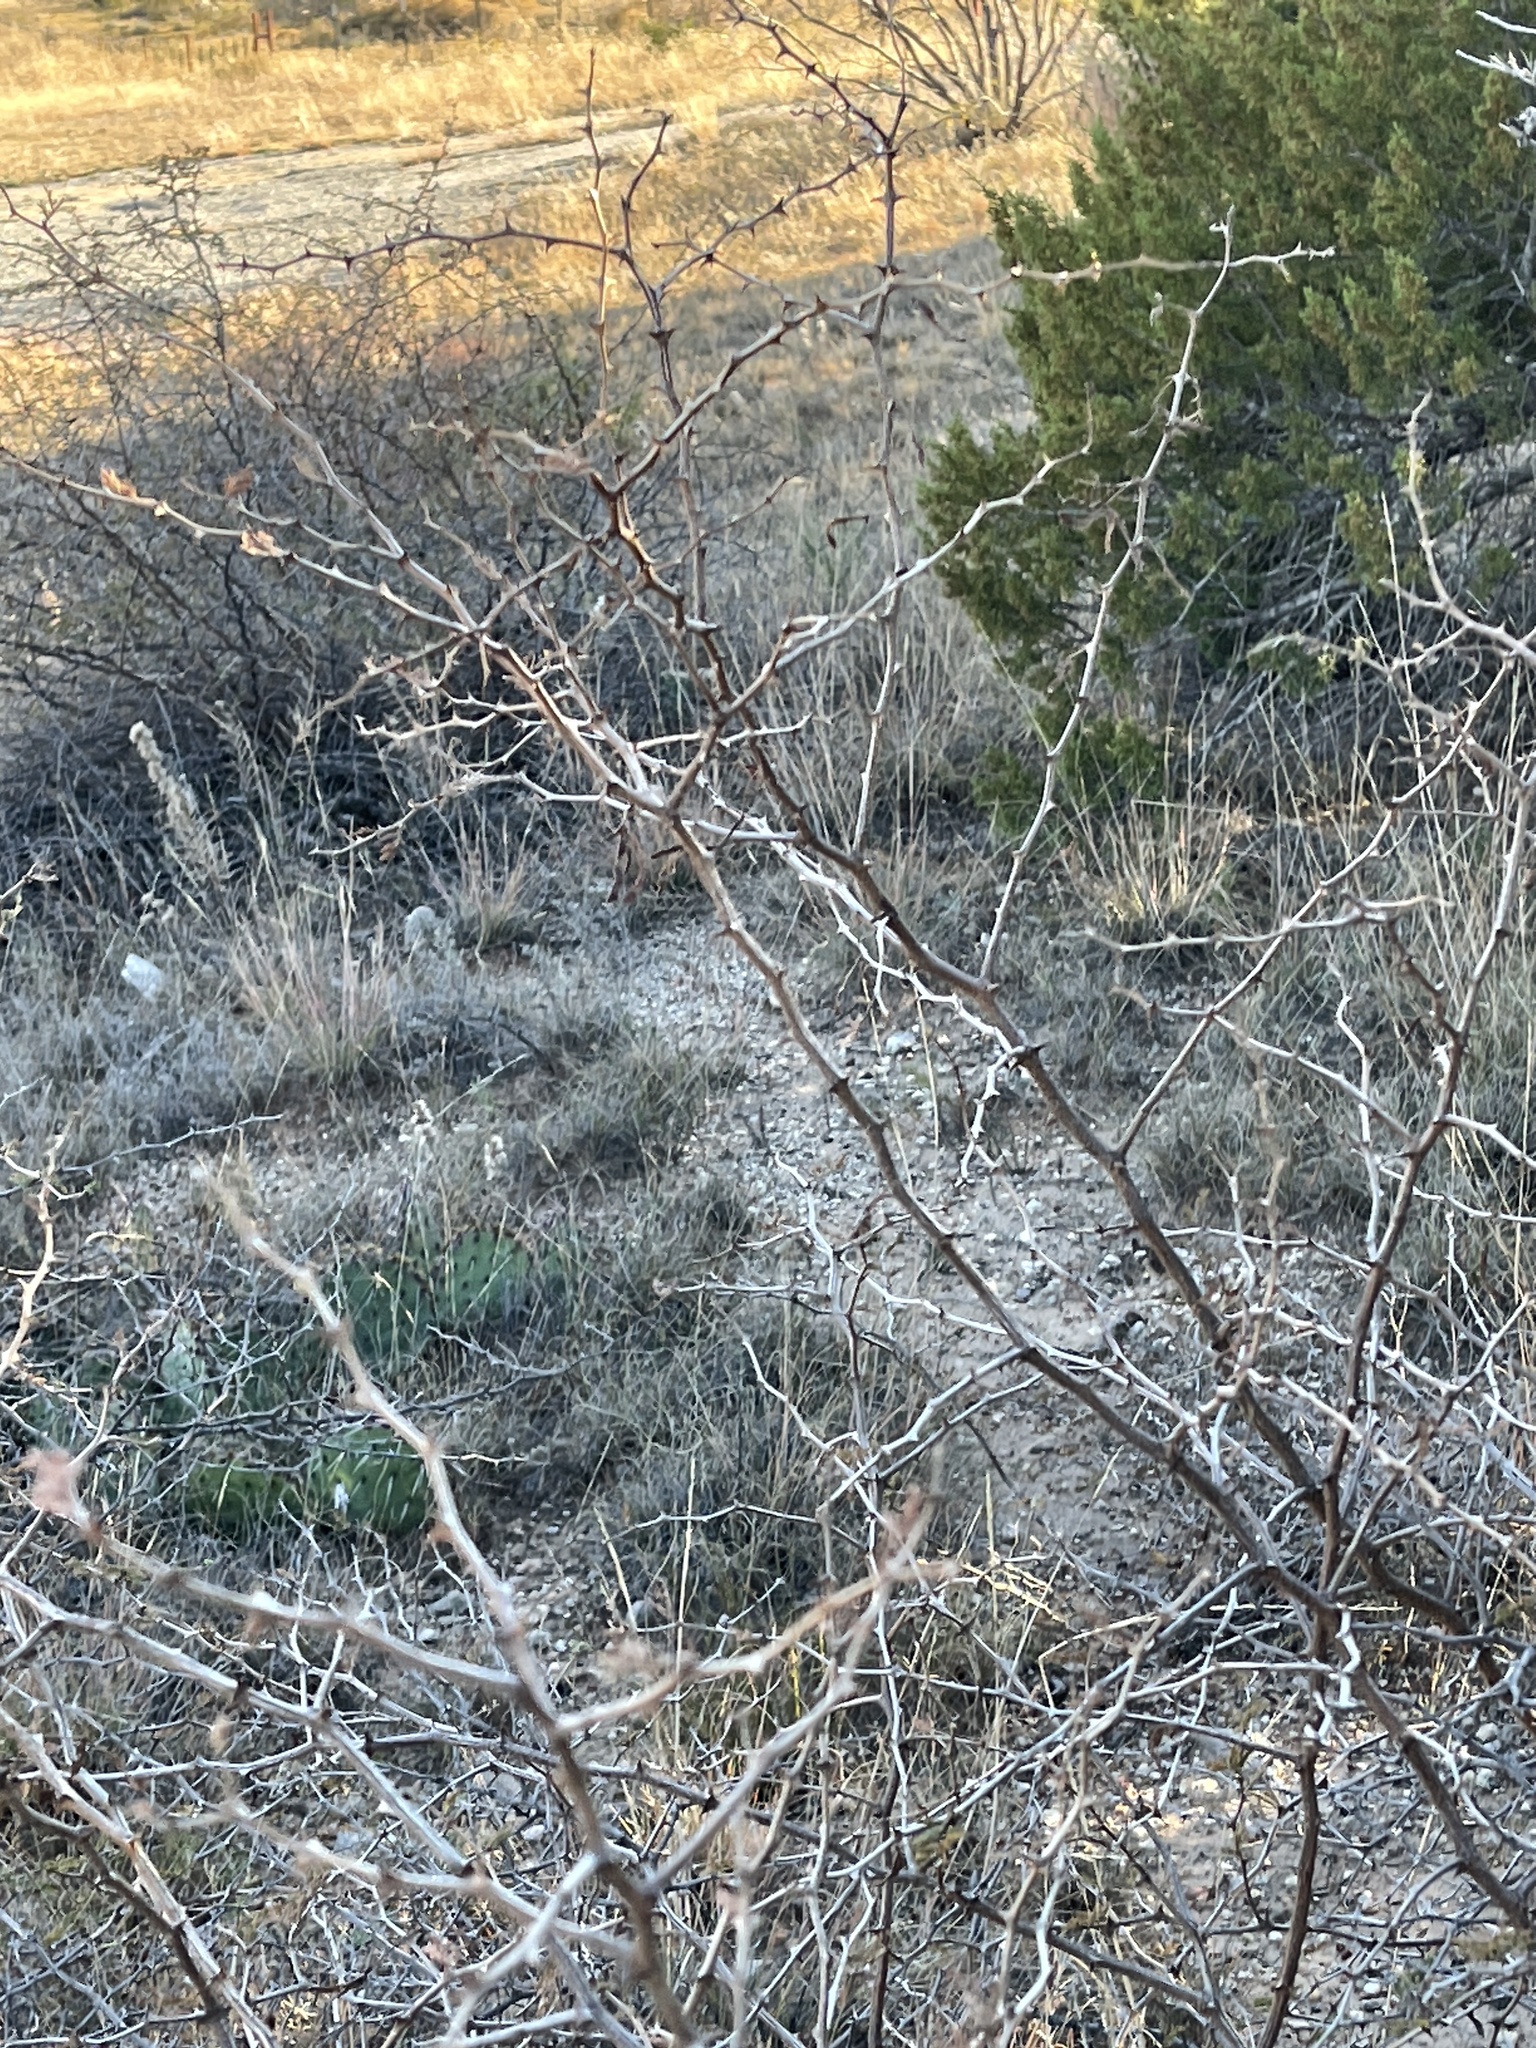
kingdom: Plantae
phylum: Tracheophyta
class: Magnoliopsida
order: Fabales
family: Fabaceae
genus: Mimosa
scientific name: Mimosa aculeaticarpa
